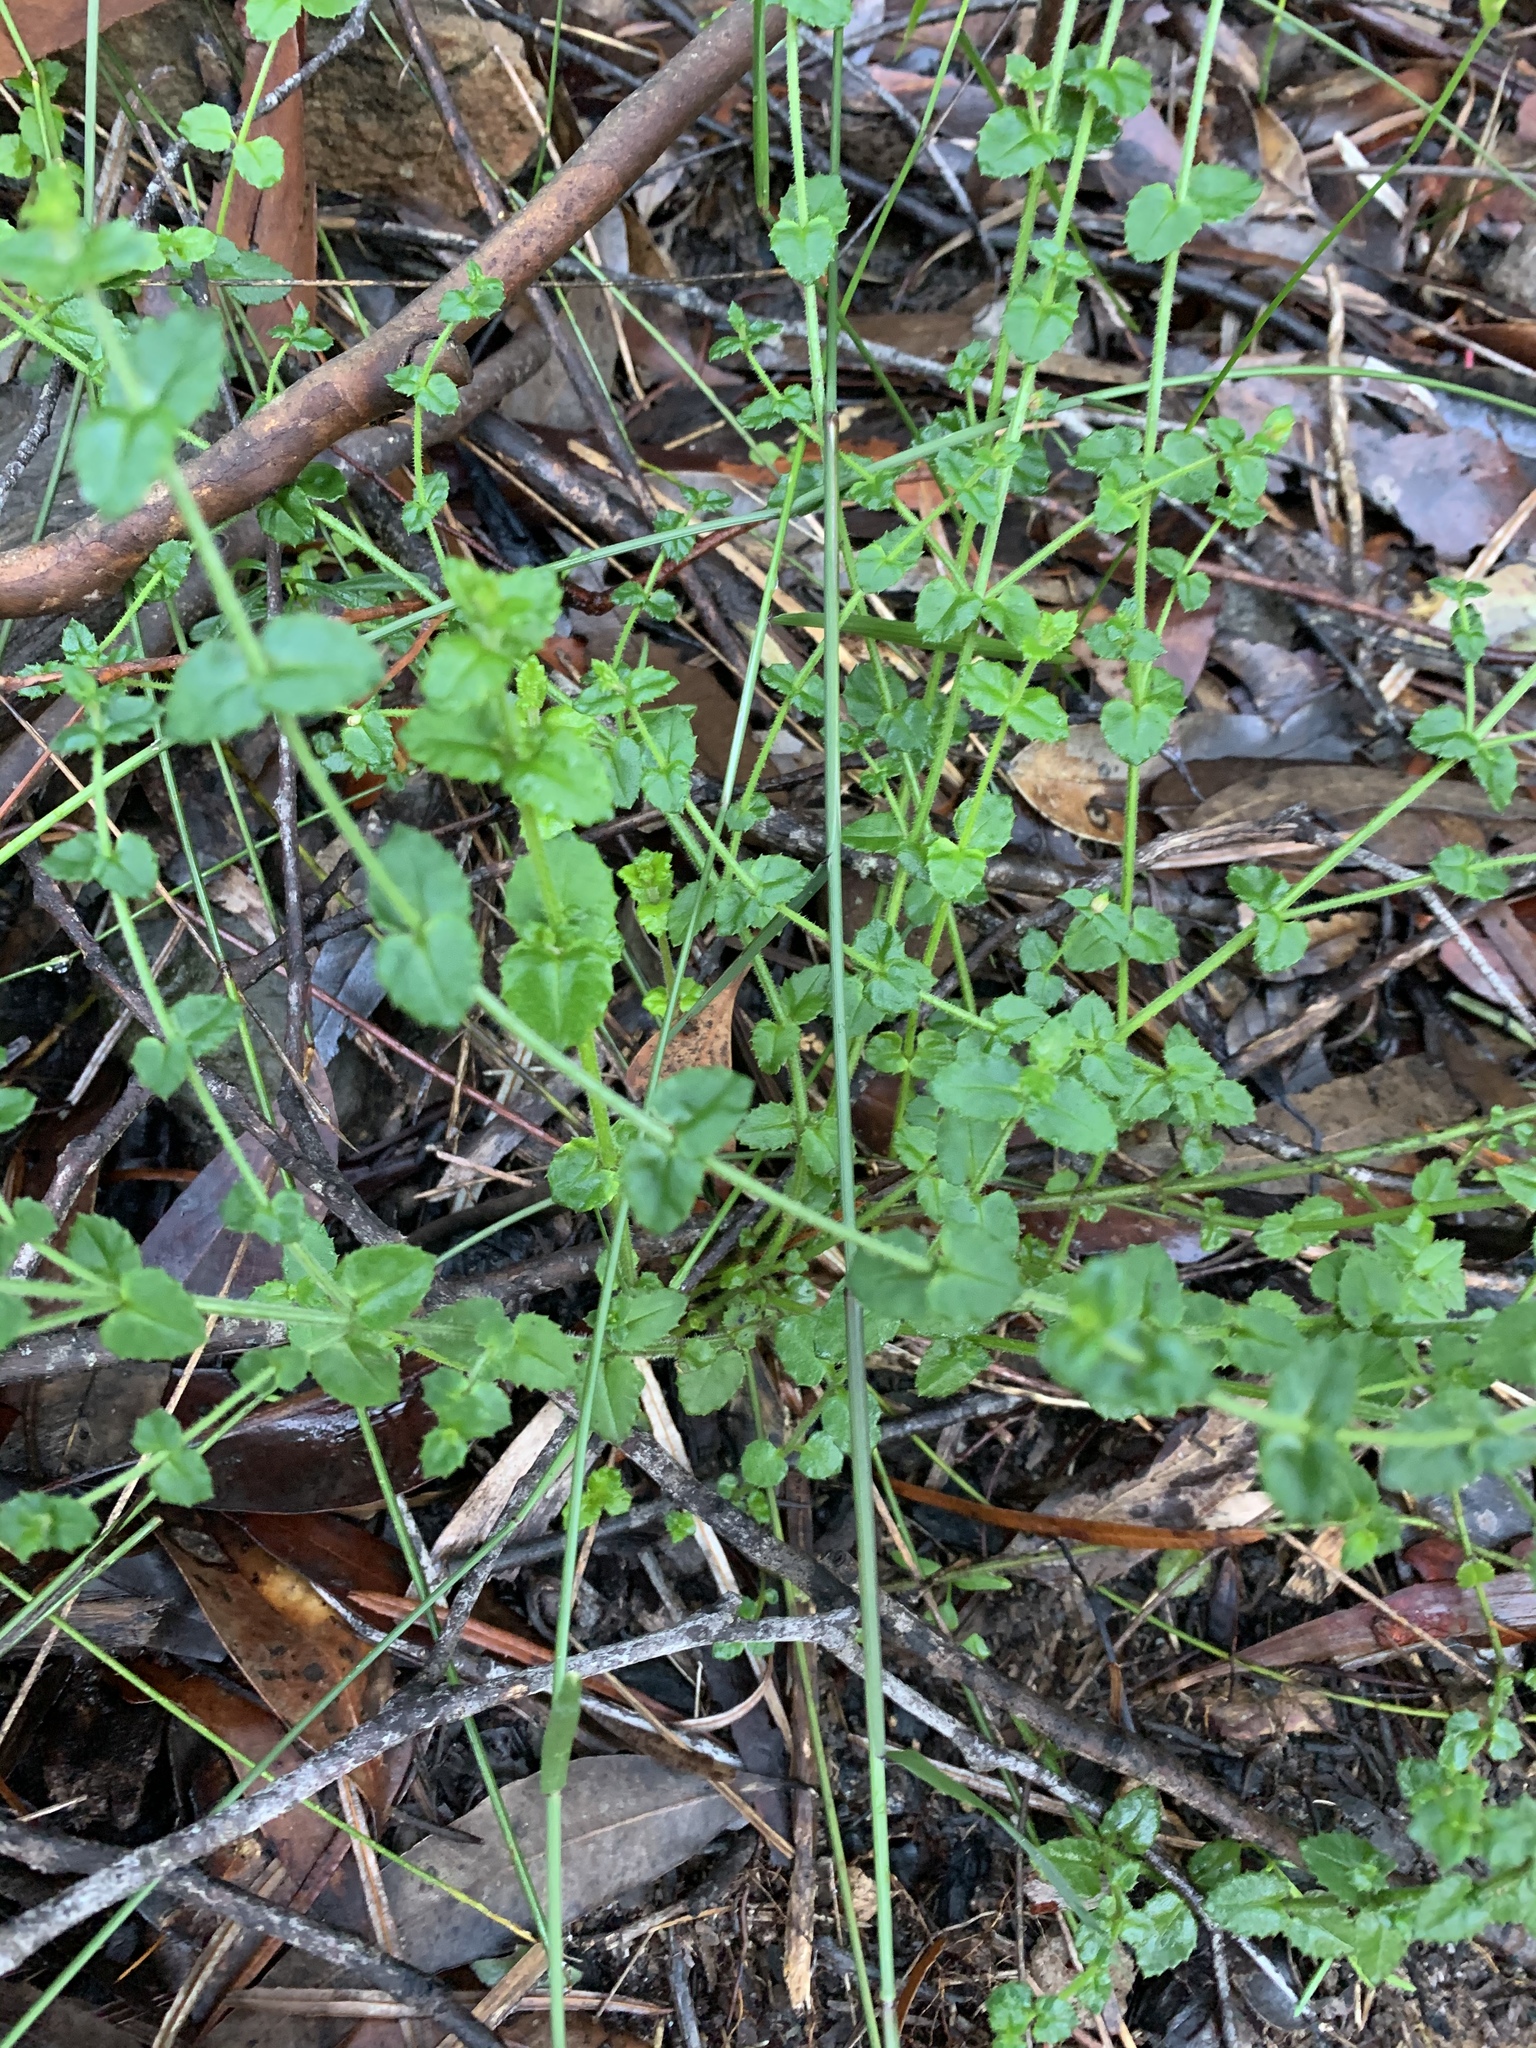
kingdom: Plantae
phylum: Tracheophyta
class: Magnoliopsida
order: Saxifragales
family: Haloragaceae
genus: Gonocarpus
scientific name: Gonocarpus teucrioides
